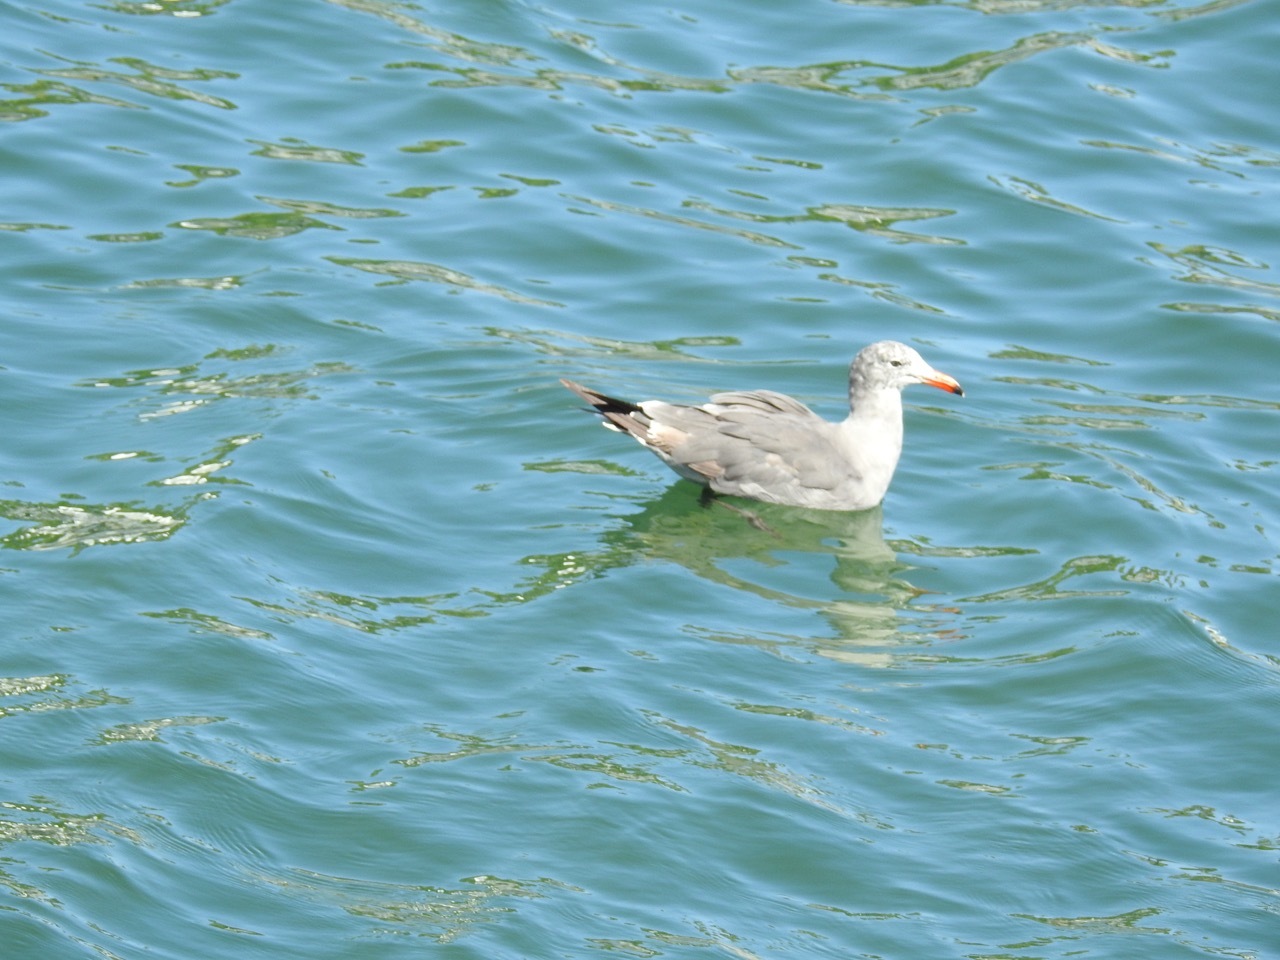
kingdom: Animalia
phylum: Chordata
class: Aves
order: Charadriiformes
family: Laridae
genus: Larus
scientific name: Larus heermanni
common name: Heermann's gull
